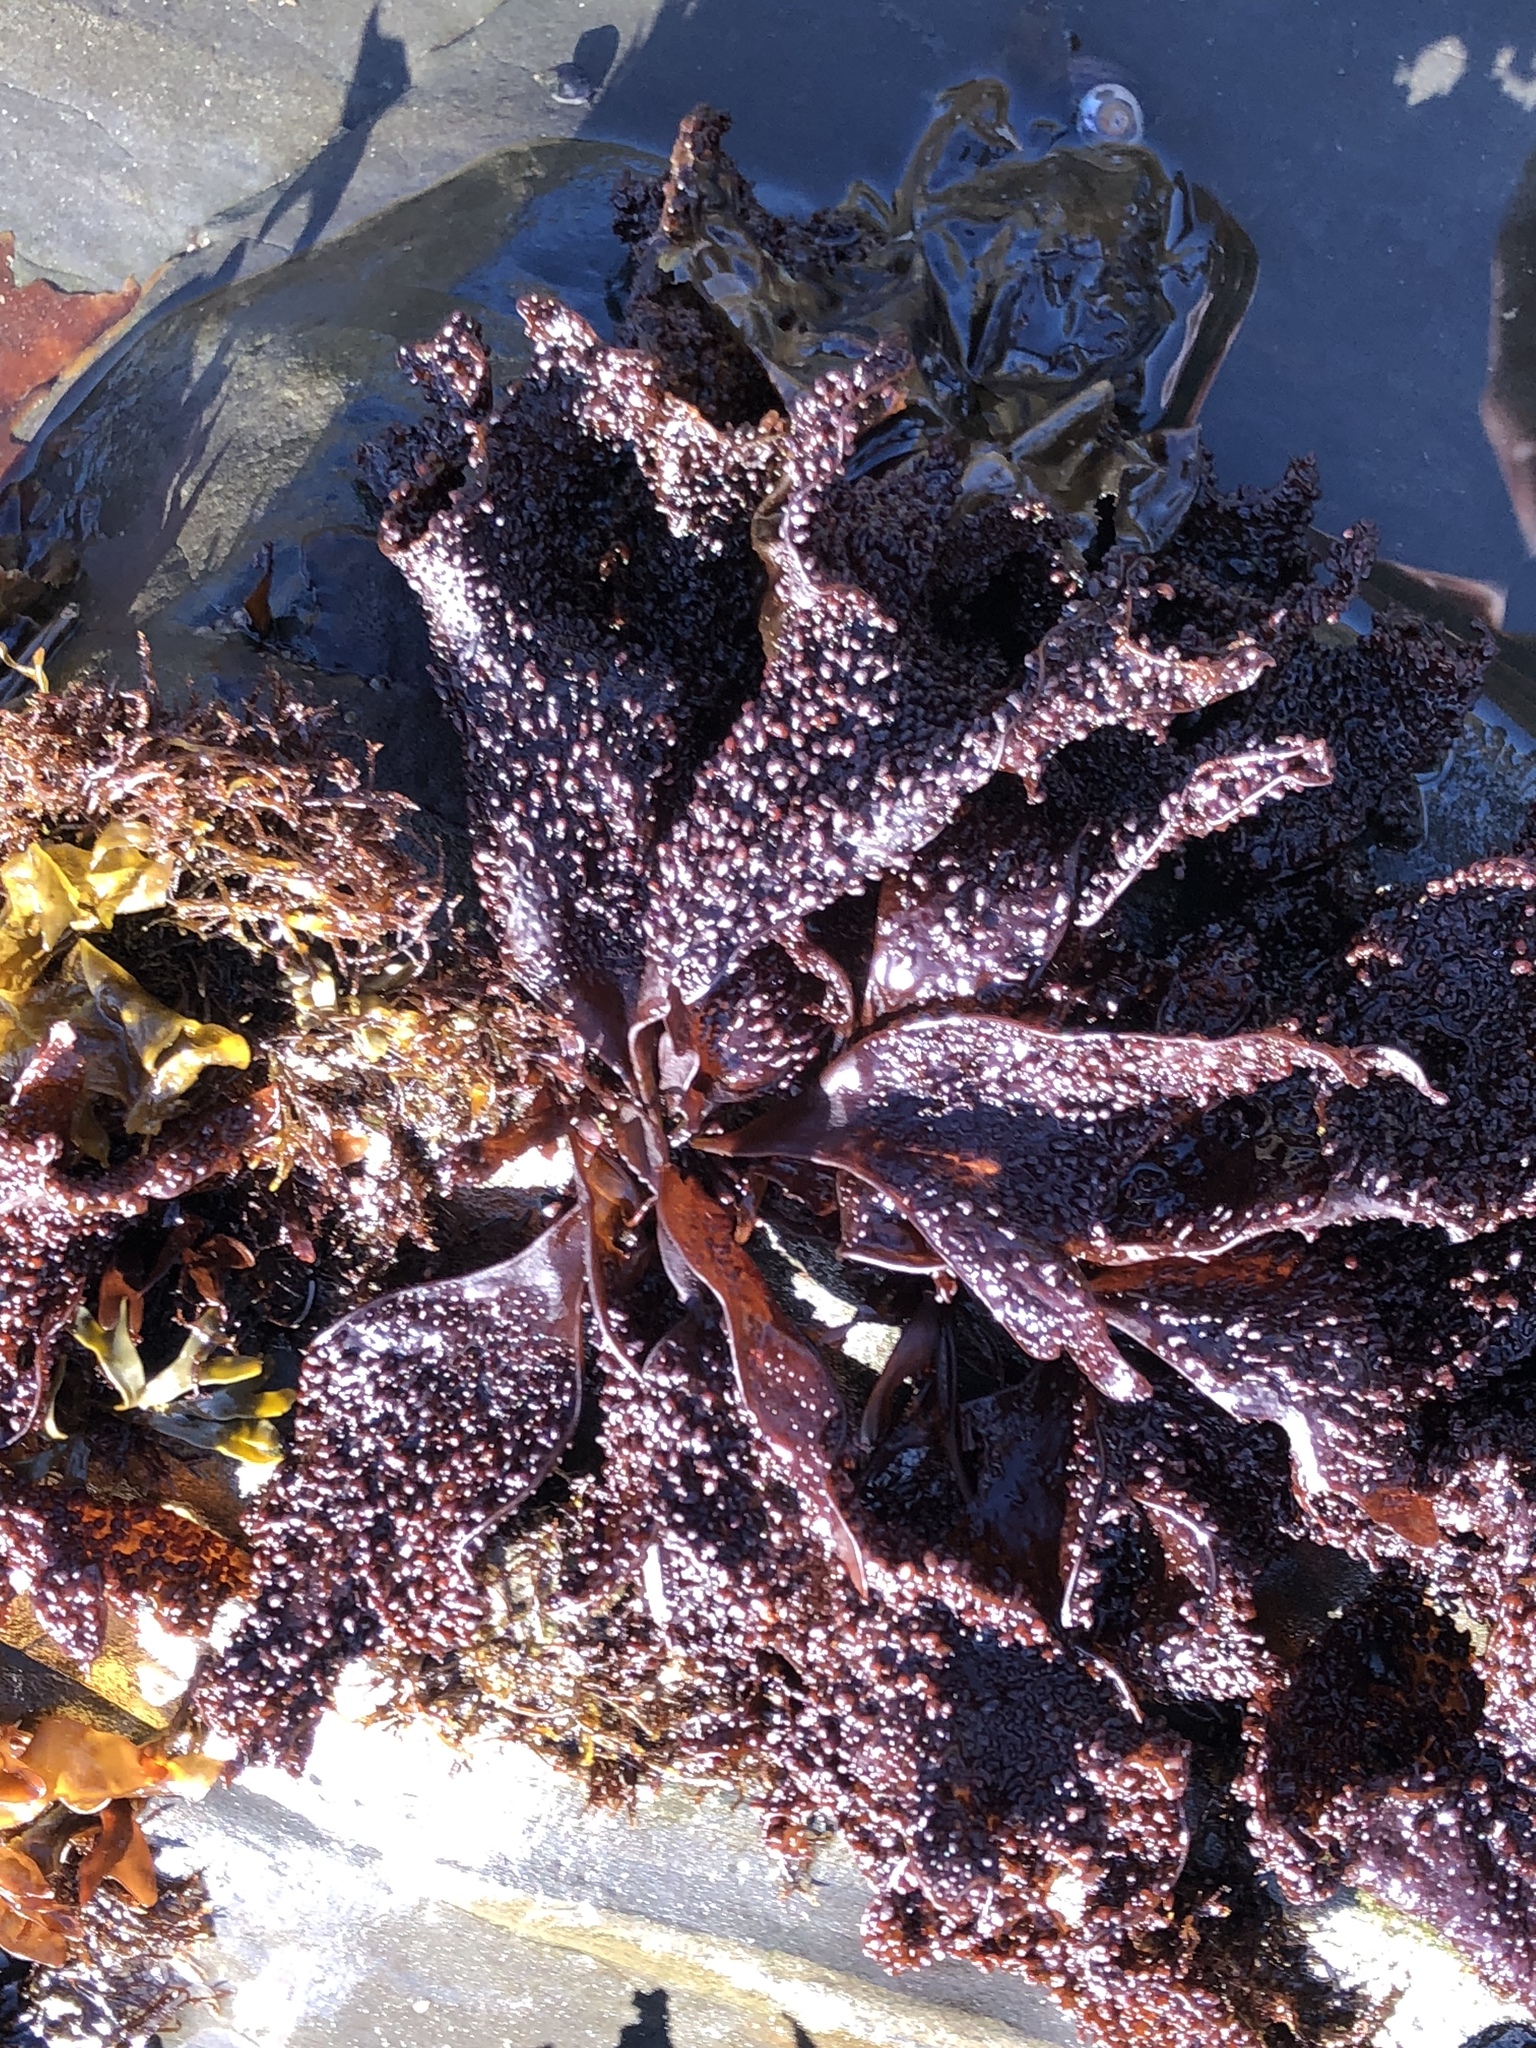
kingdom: Plantae
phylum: Rhodophyta
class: Florideophyceae
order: Gigartinales
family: Phyllophoraceae
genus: Mastocarpus
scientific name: Mastocarpus papillatus
